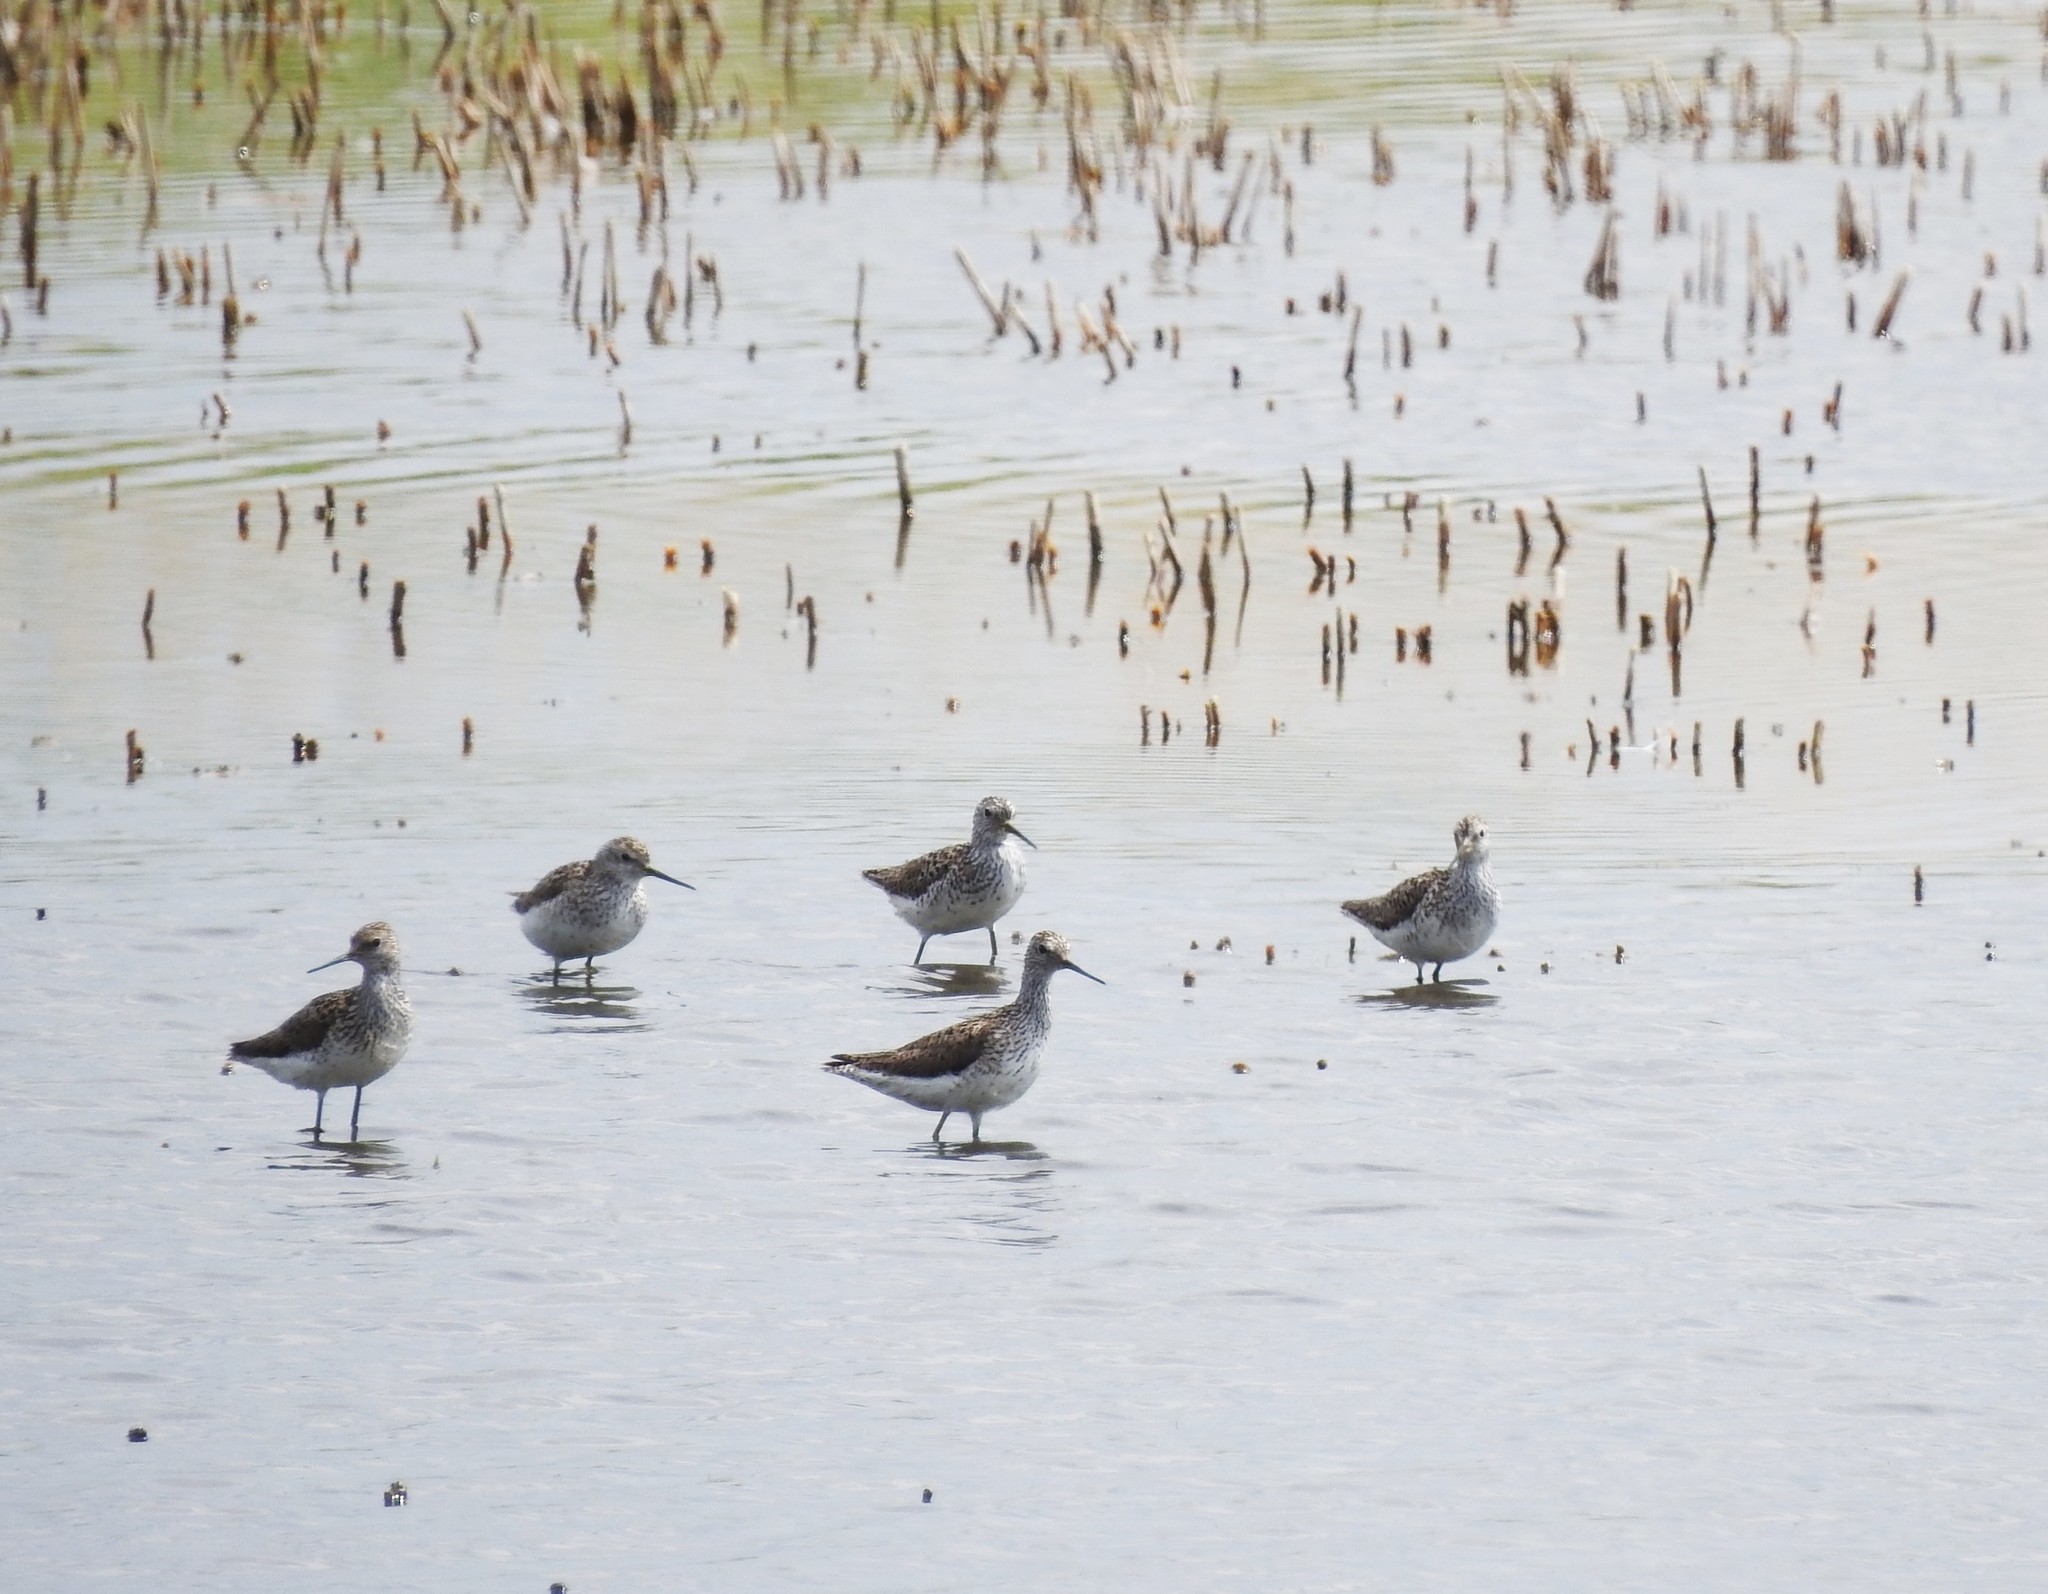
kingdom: Animalia
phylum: Chordata
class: Aves
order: Charadriiformes
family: Scolopacidae
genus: Tringa
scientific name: Tringa stagnatilis
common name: Marsh sandpiper
